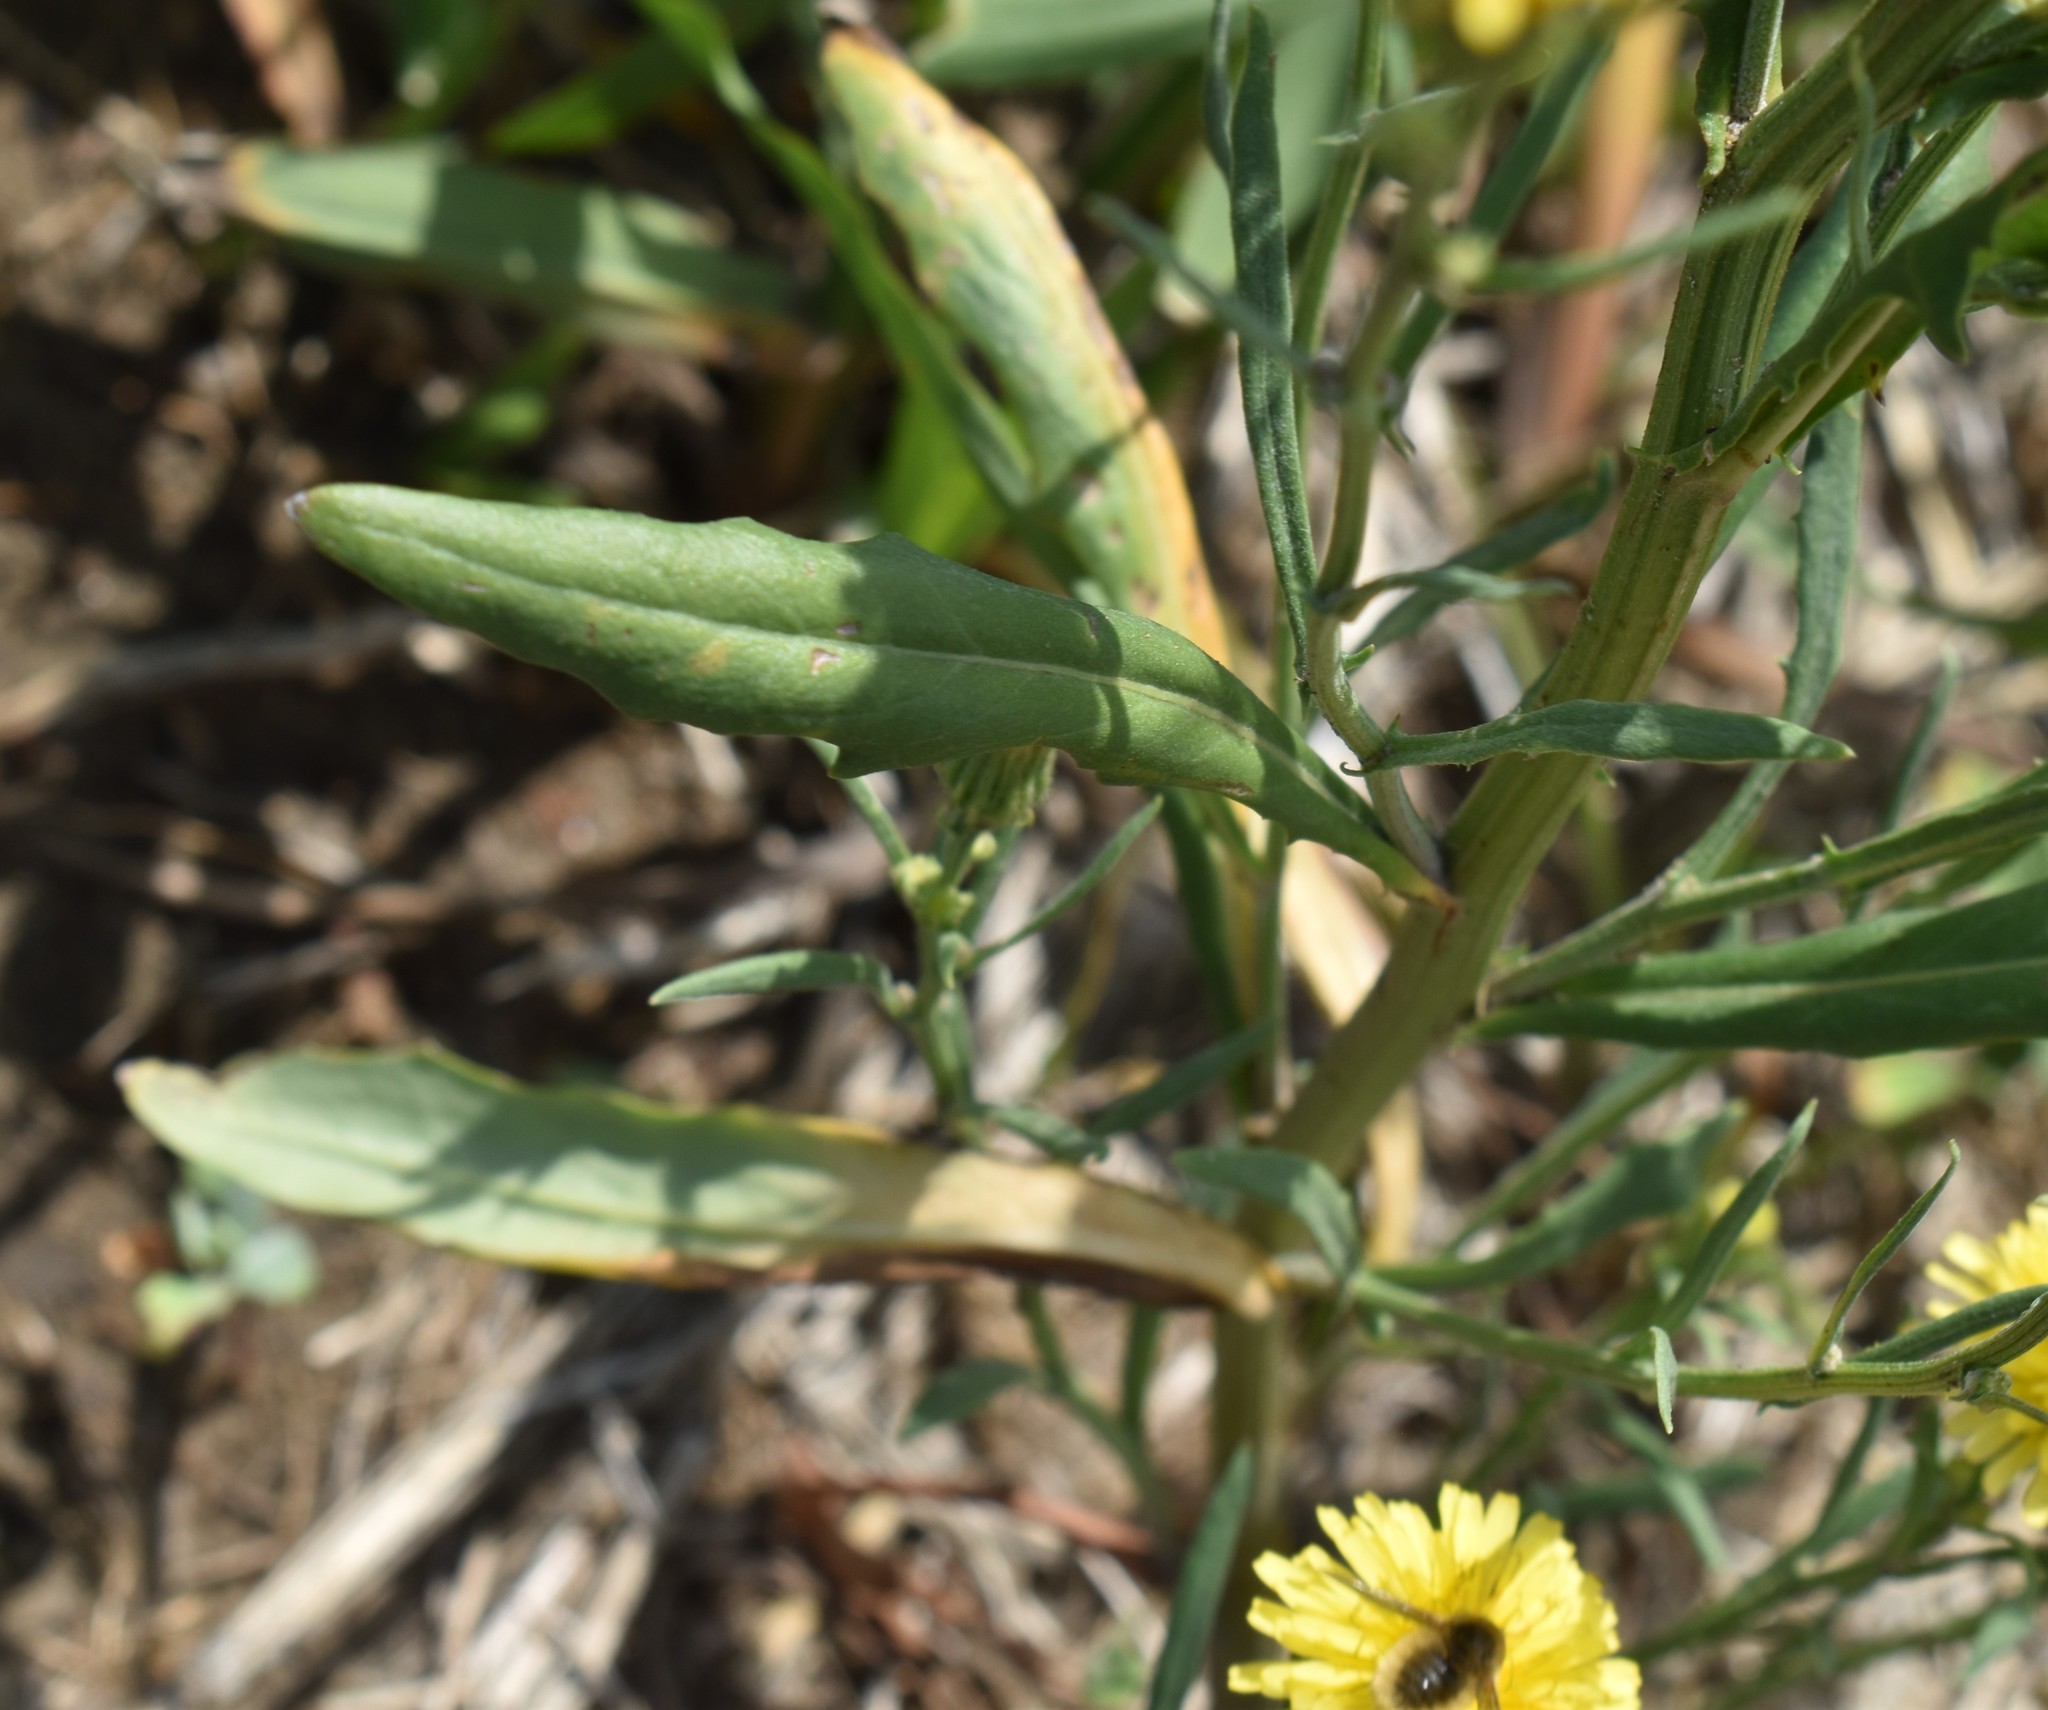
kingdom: Plantae
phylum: Tracheophyta
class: Magnoliopsida
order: Asterales
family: Asteraceae
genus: Crepis
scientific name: Crepis tectorum
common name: Narrow-leaved hawk's-beard
